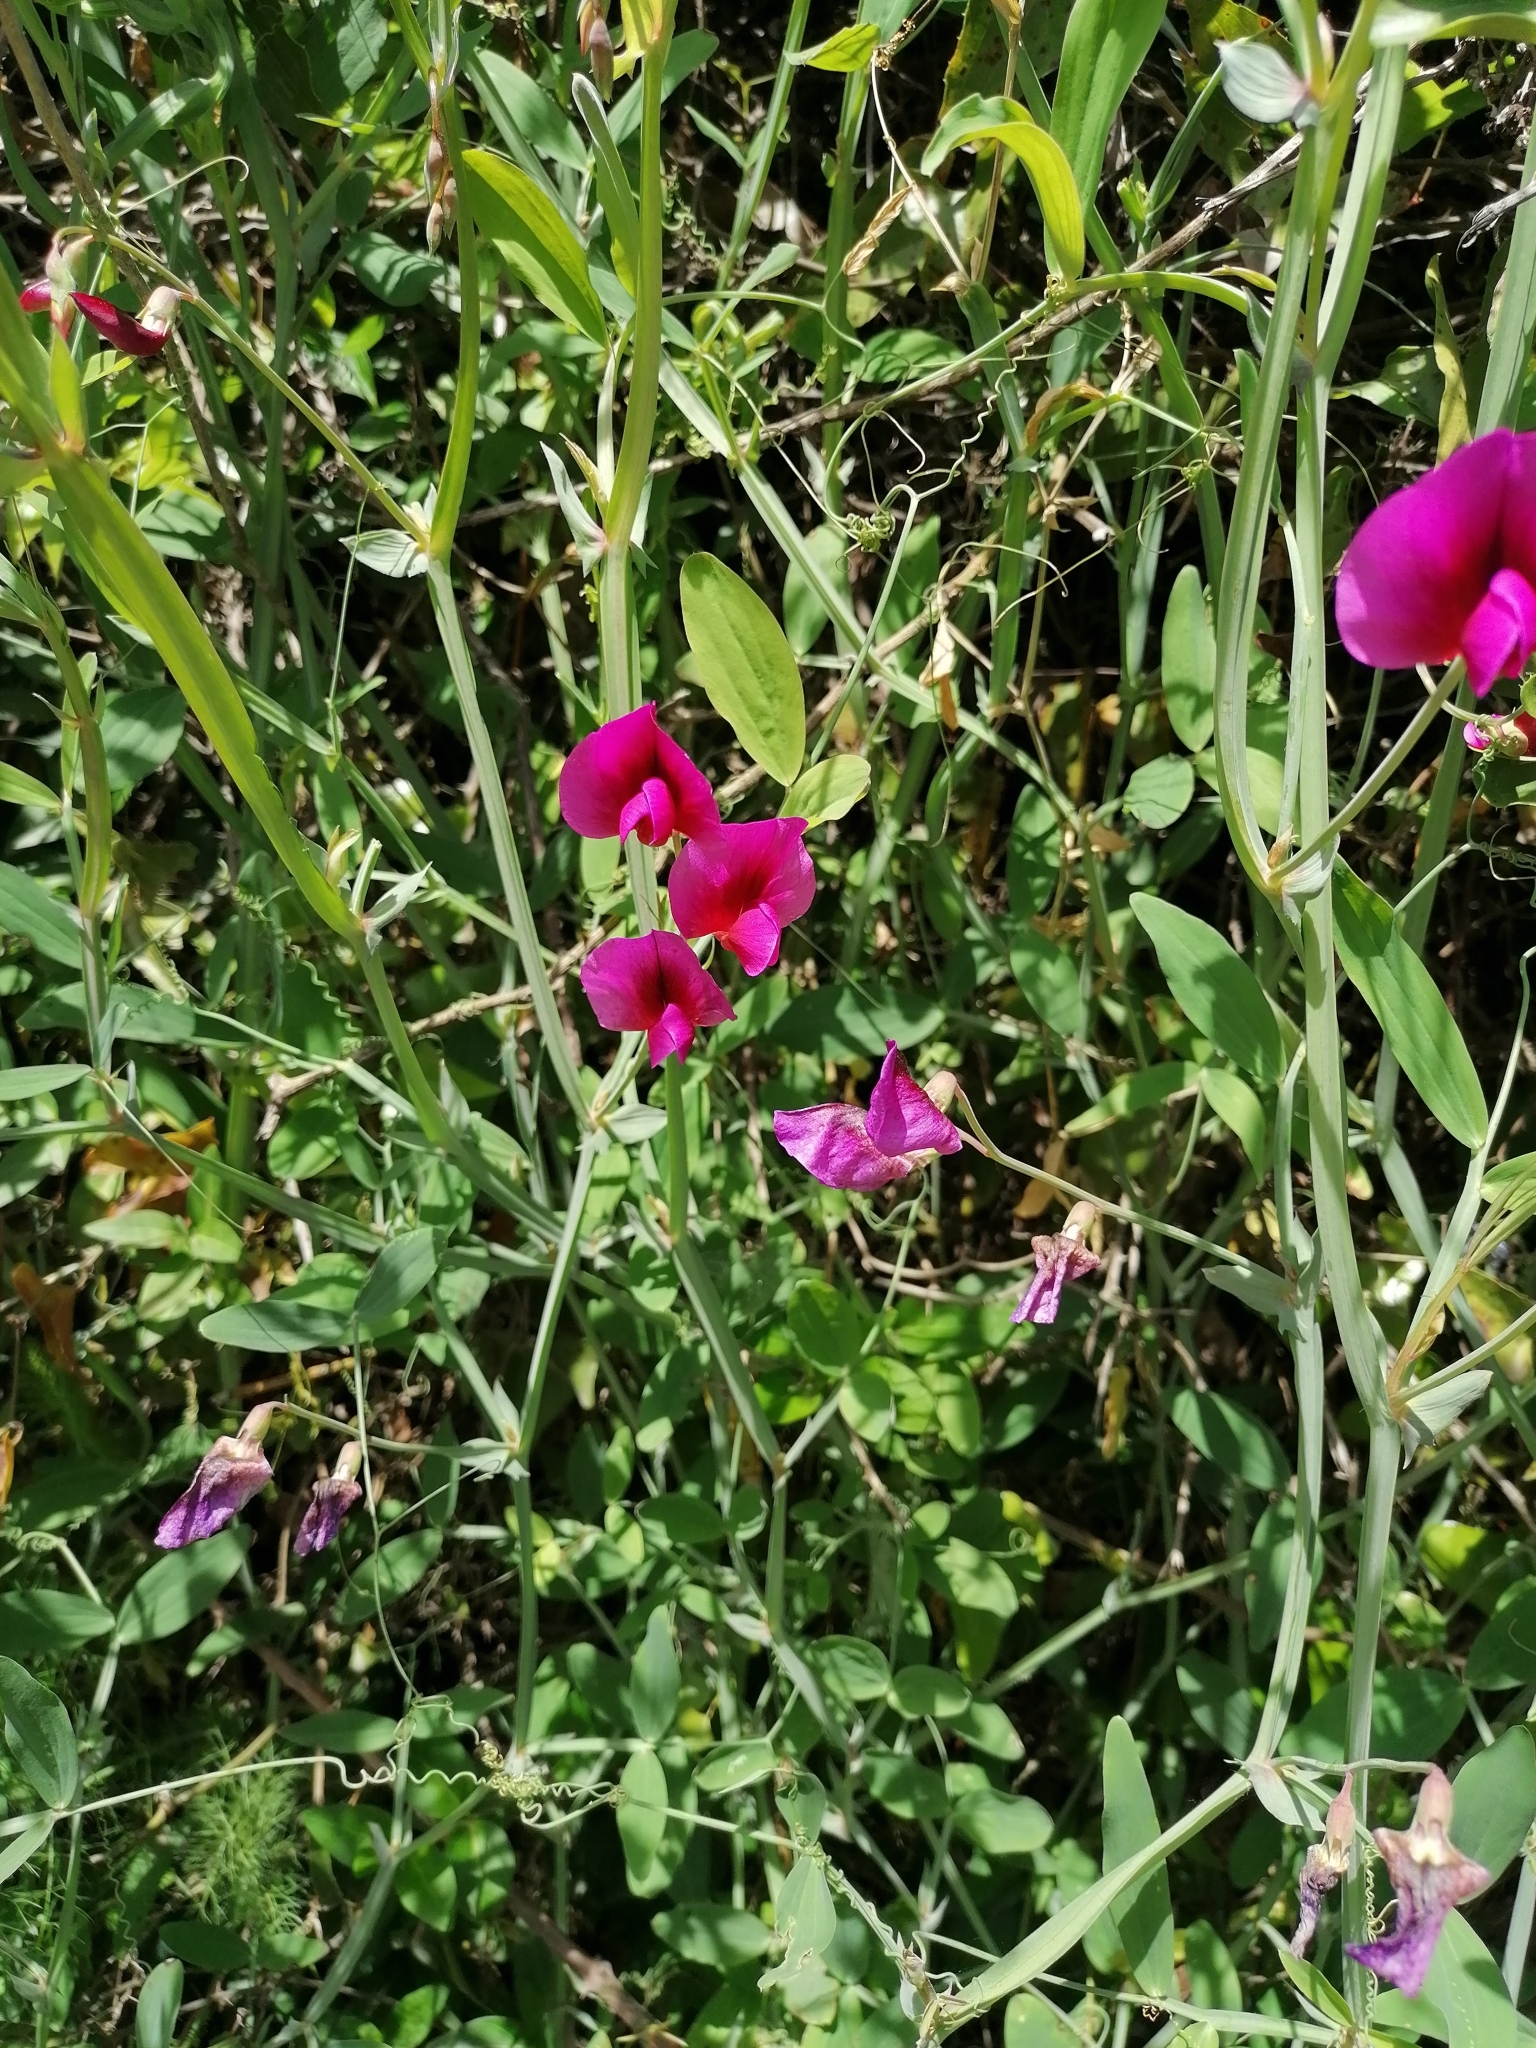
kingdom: Plantae
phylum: Tracheophyta
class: Magnoliopsida
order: Fabales
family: Fabaceae
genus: Lathyrus
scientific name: Lathyrus tingitanus
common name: Tangier pea
